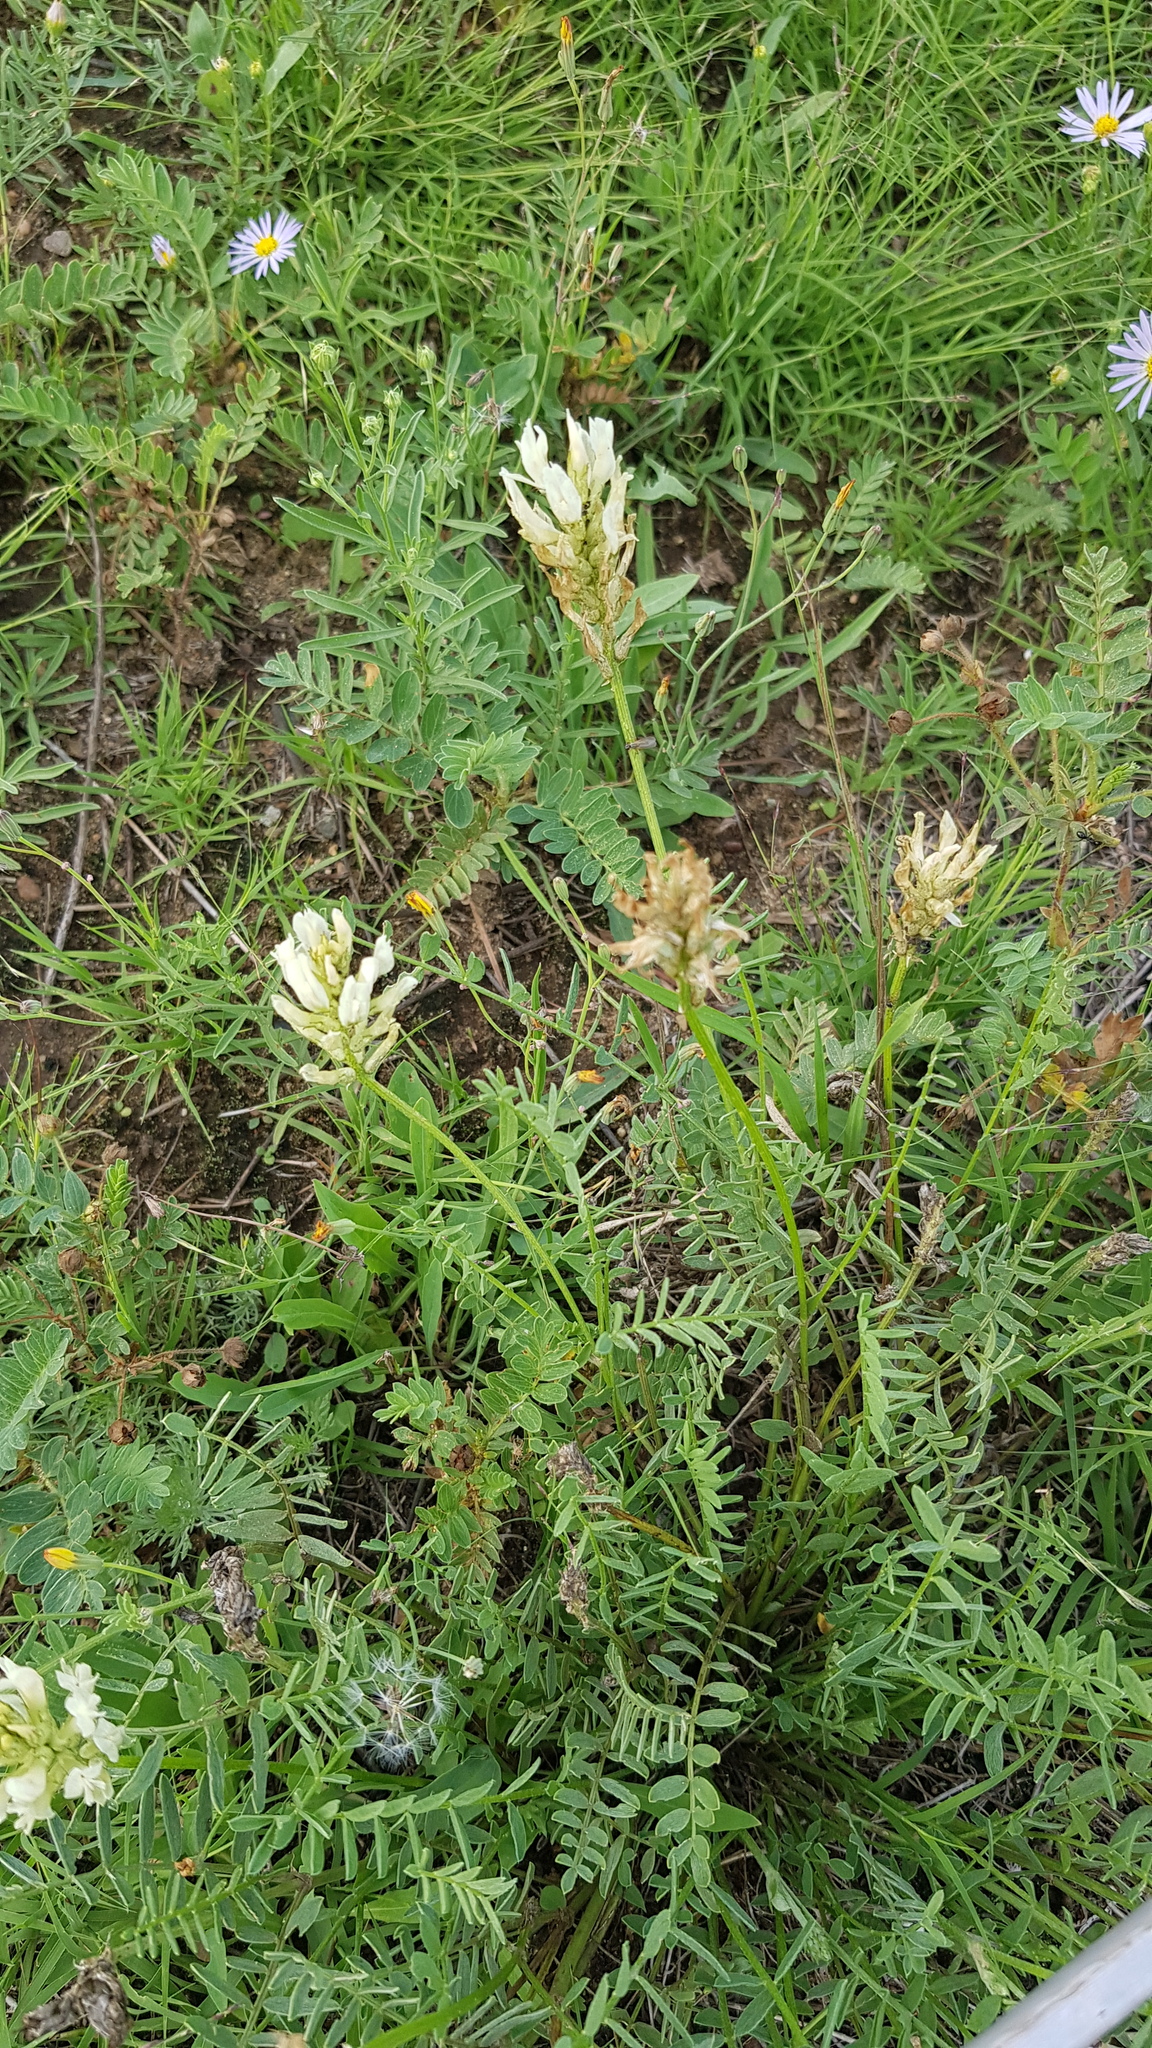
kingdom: Plantae
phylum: Tracheophyta
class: Magnoliopsida
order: Fabales
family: Fabaceae
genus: Astragalus
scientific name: Astragalus laxmannii
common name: Laxmann's milk-vetch
